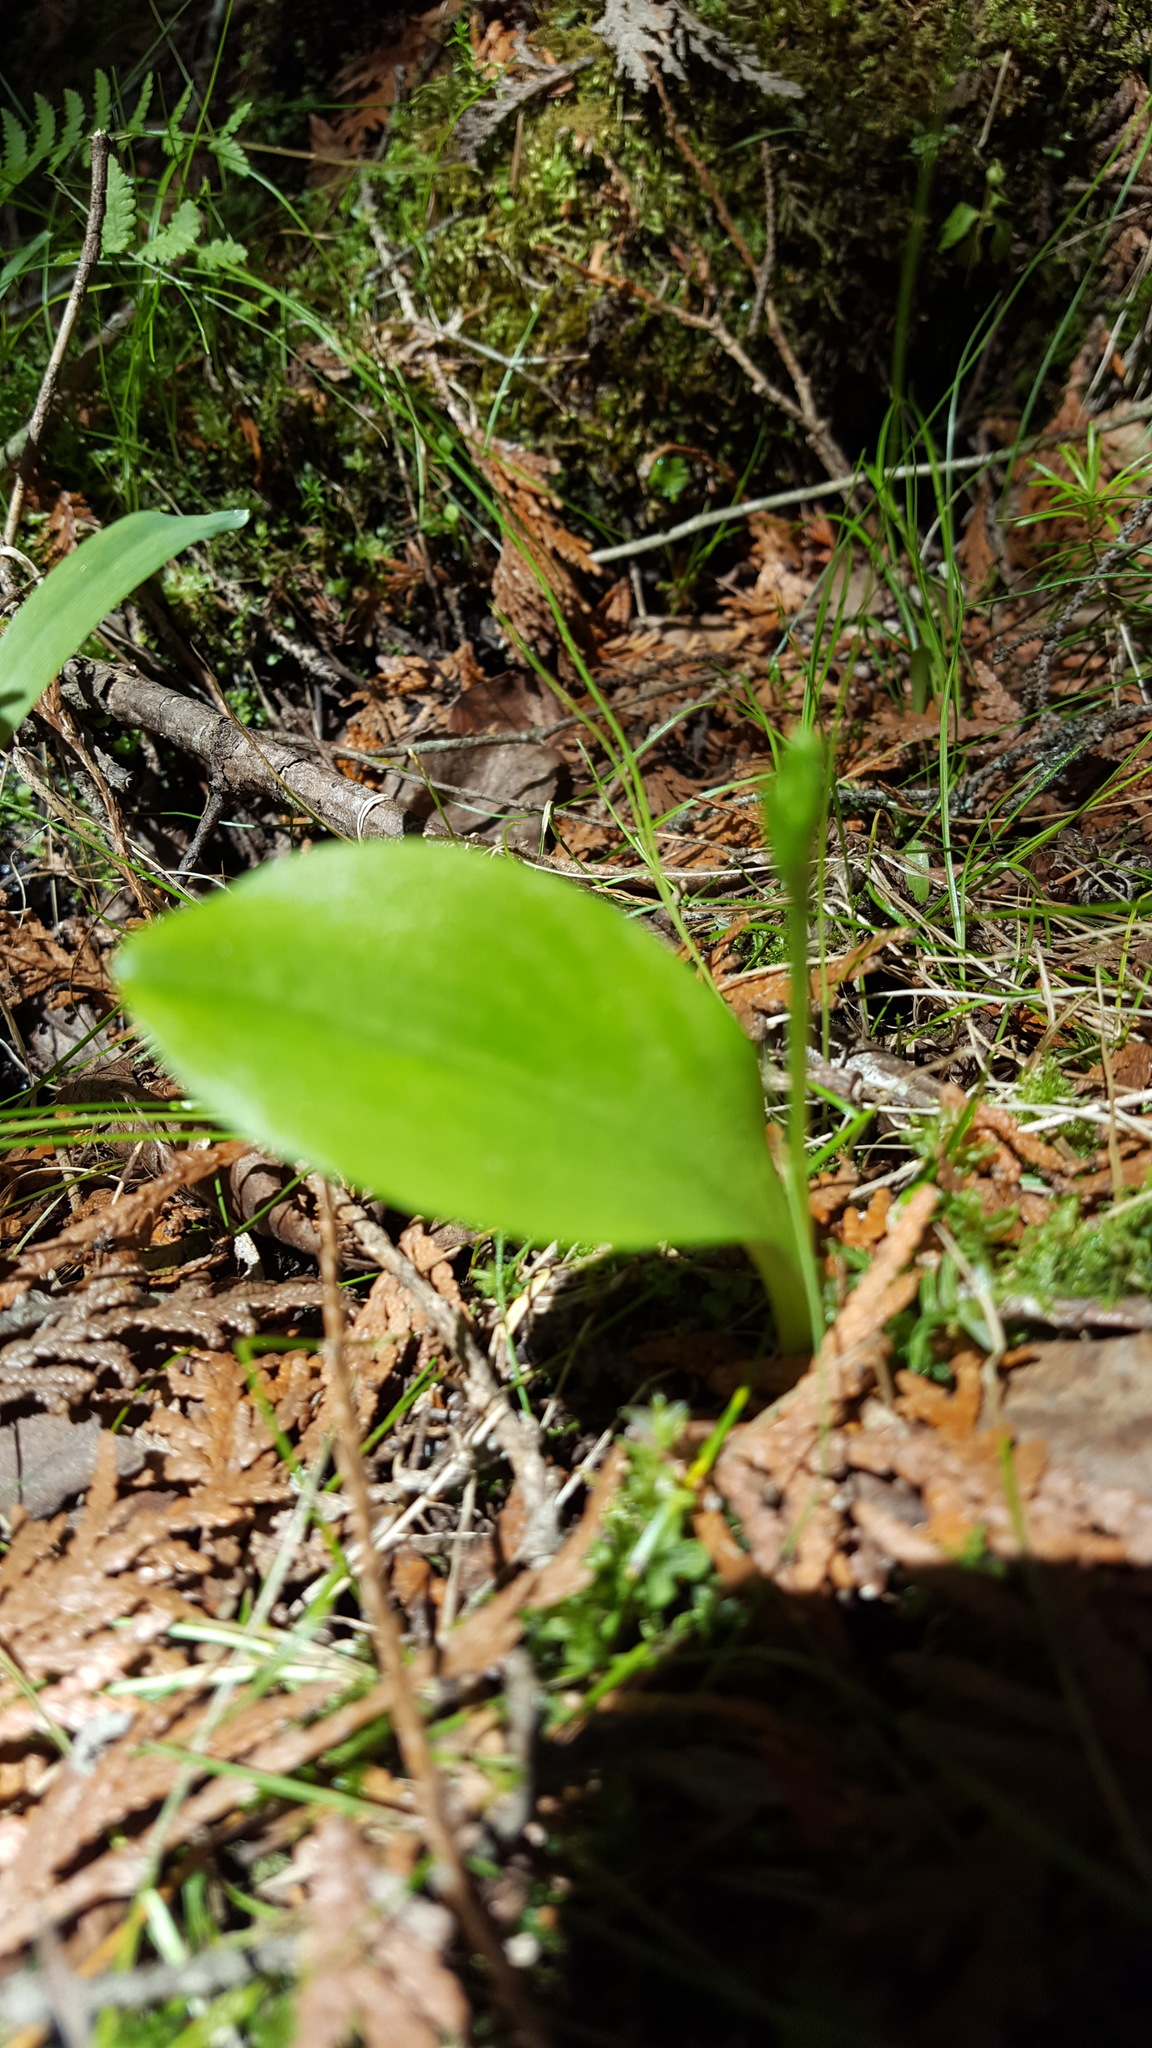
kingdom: Plantae
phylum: Tracheophyta
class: Liliopsida
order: Asparagales
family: Orchidaceae
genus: Platanthera
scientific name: Platanthera obtusata
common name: Blunt bog orchid
